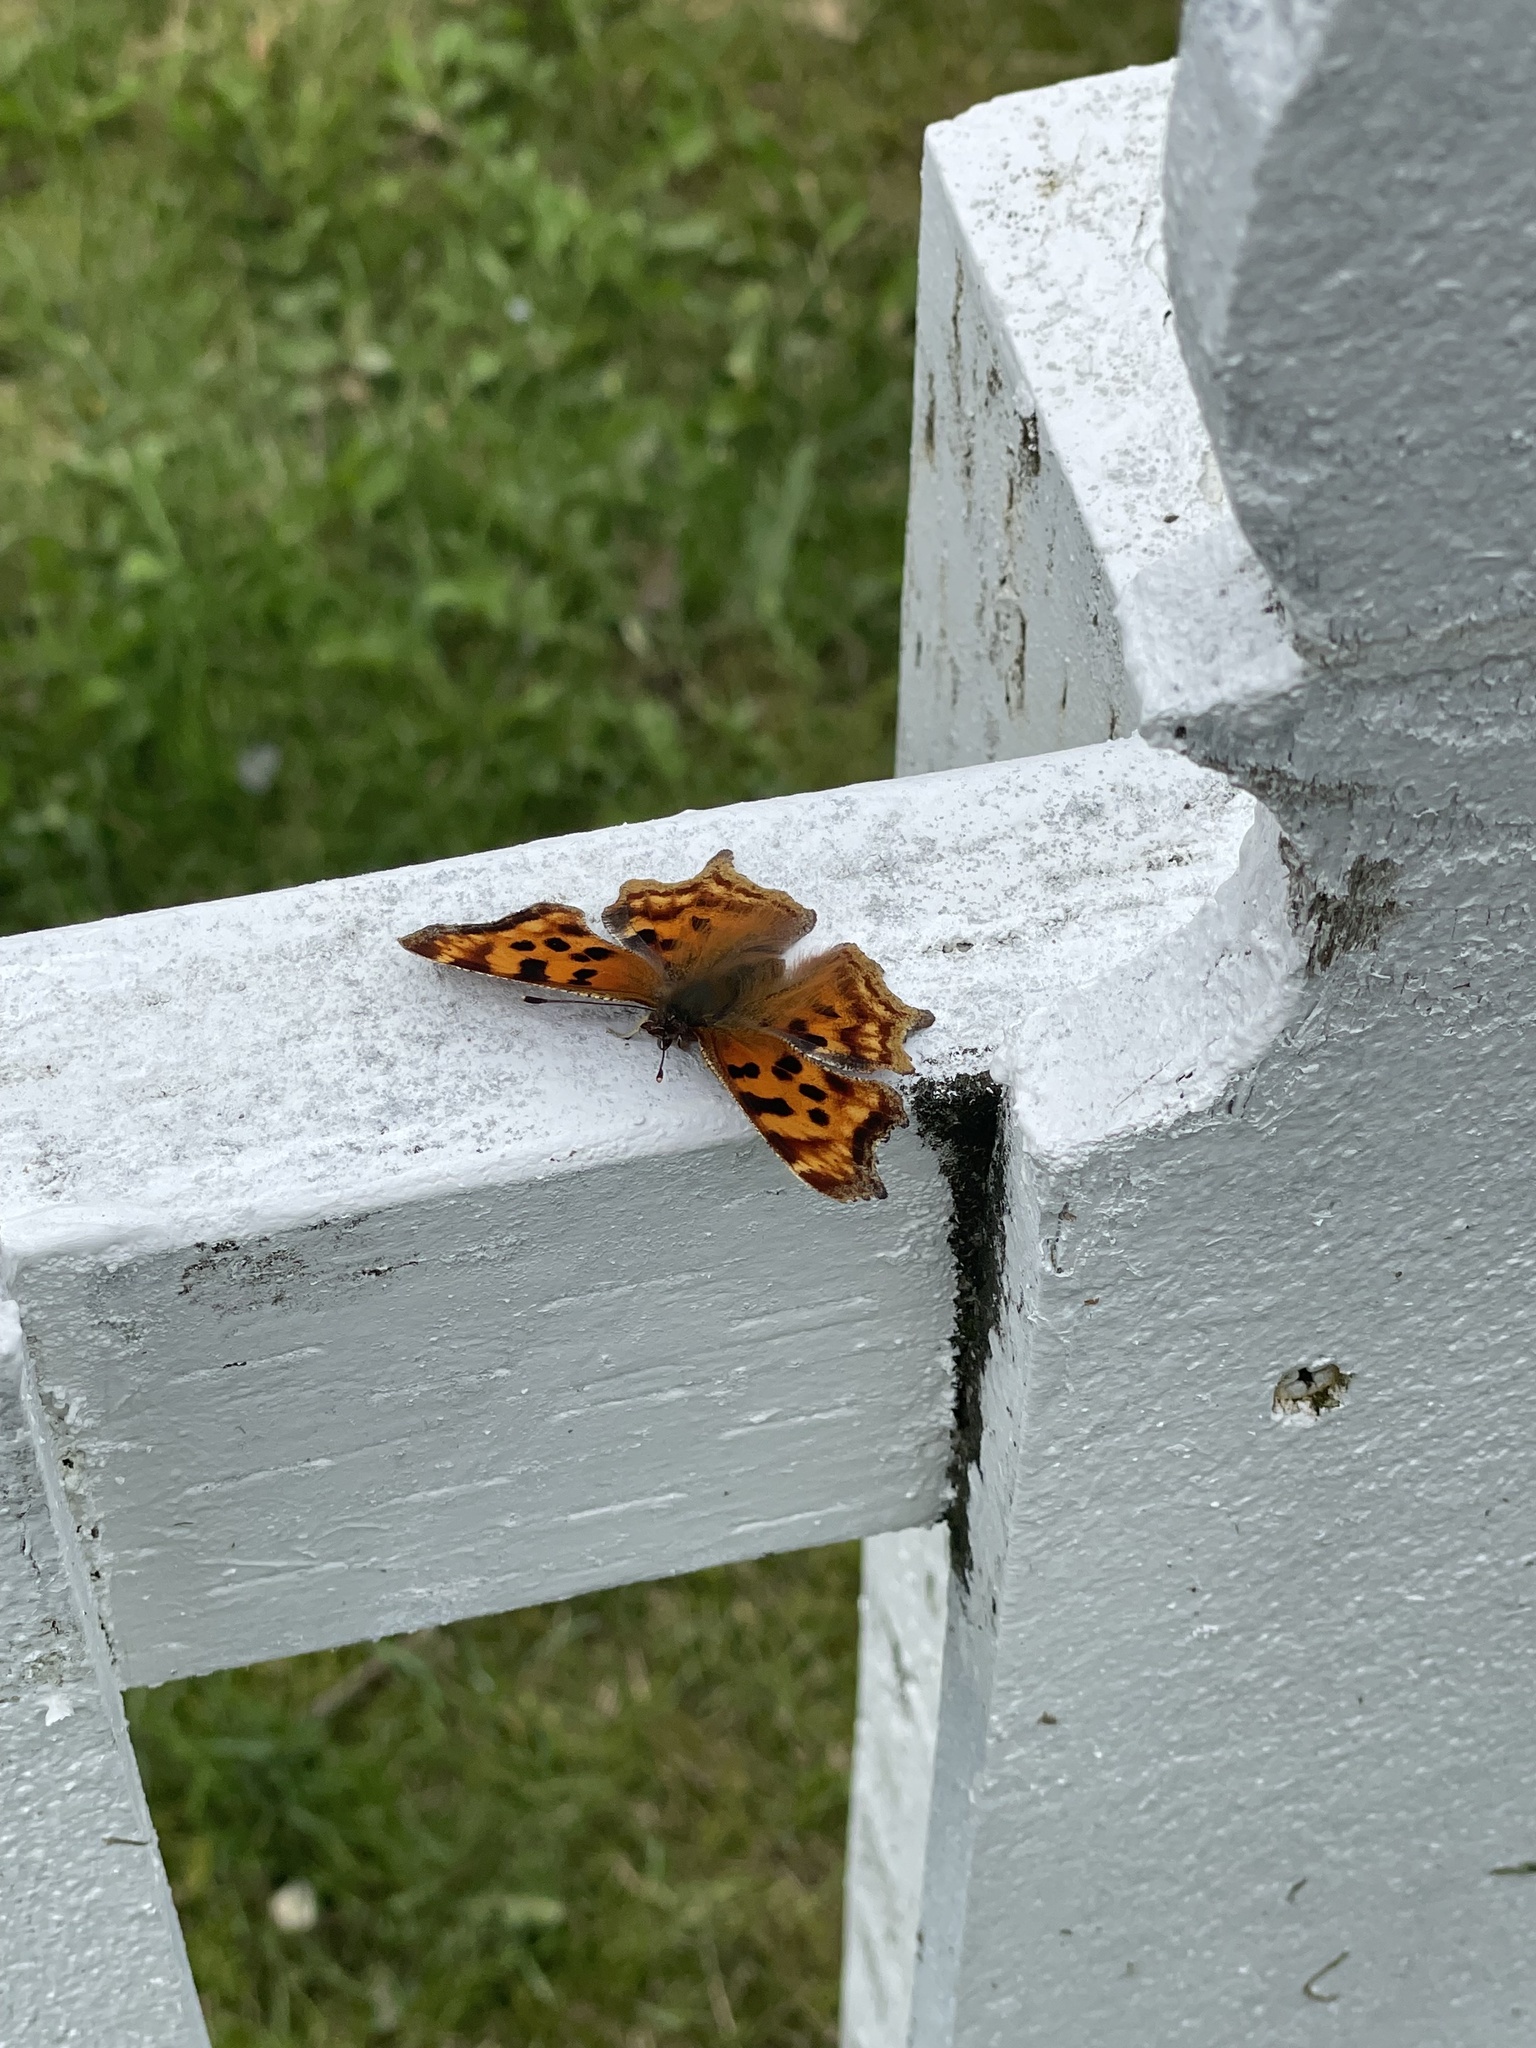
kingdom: Animalia
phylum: Arthropoda
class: Insecta
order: Lepidoptera
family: Nymphalidae
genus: Polygonia
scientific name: Polygonia satyrus
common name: Satyr angle wing
